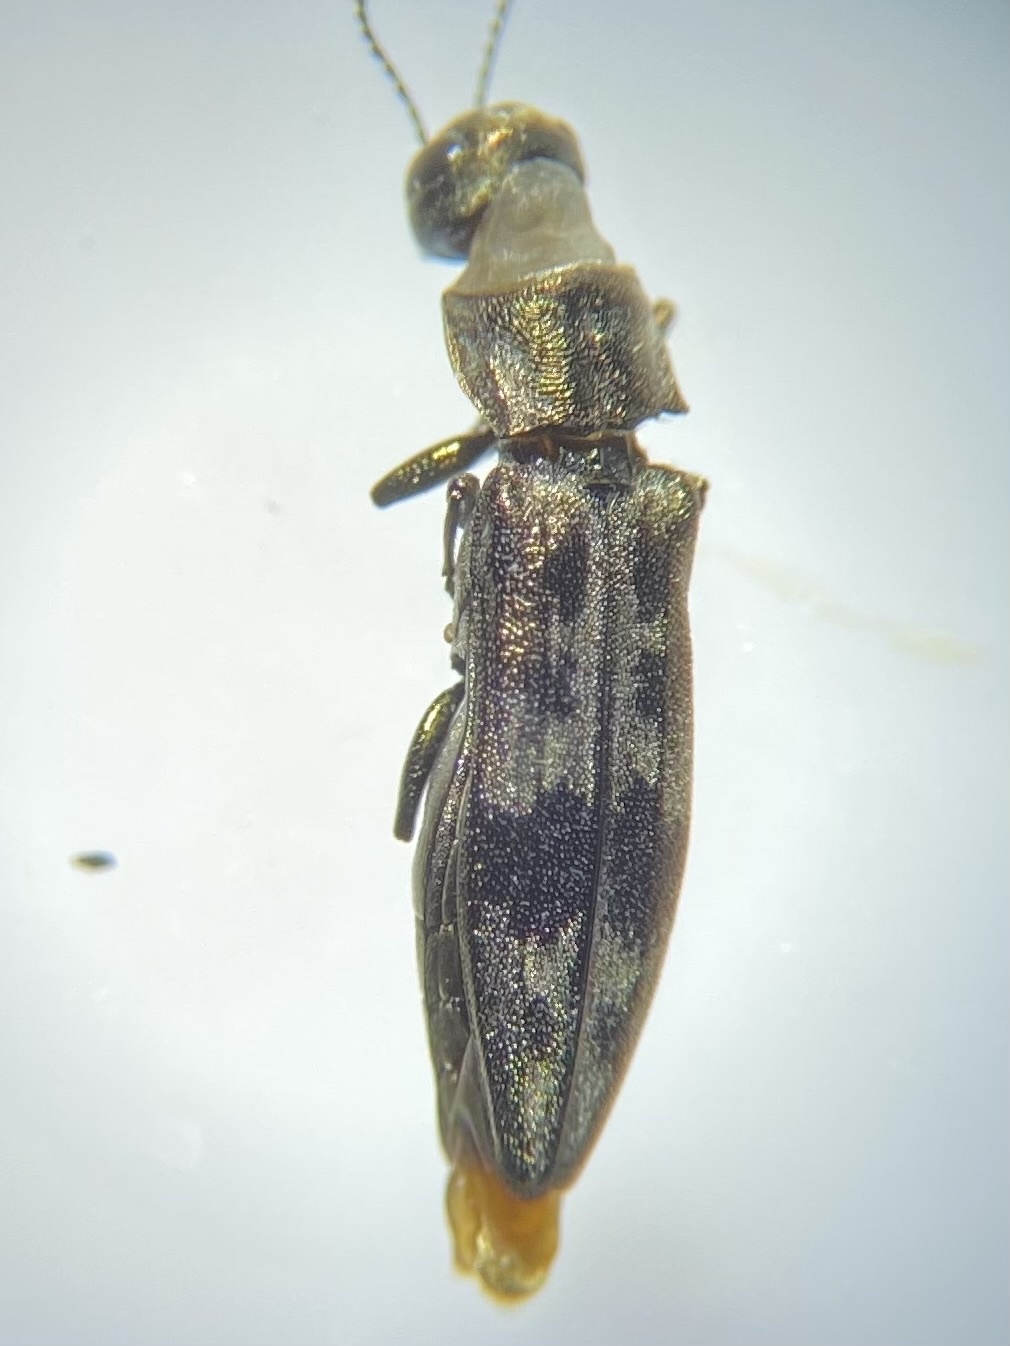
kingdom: Animalia
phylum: Arthropoda
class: Insecta
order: Coleoptera
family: Buprestidae
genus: Agrilus
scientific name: Agrilus lecontei
